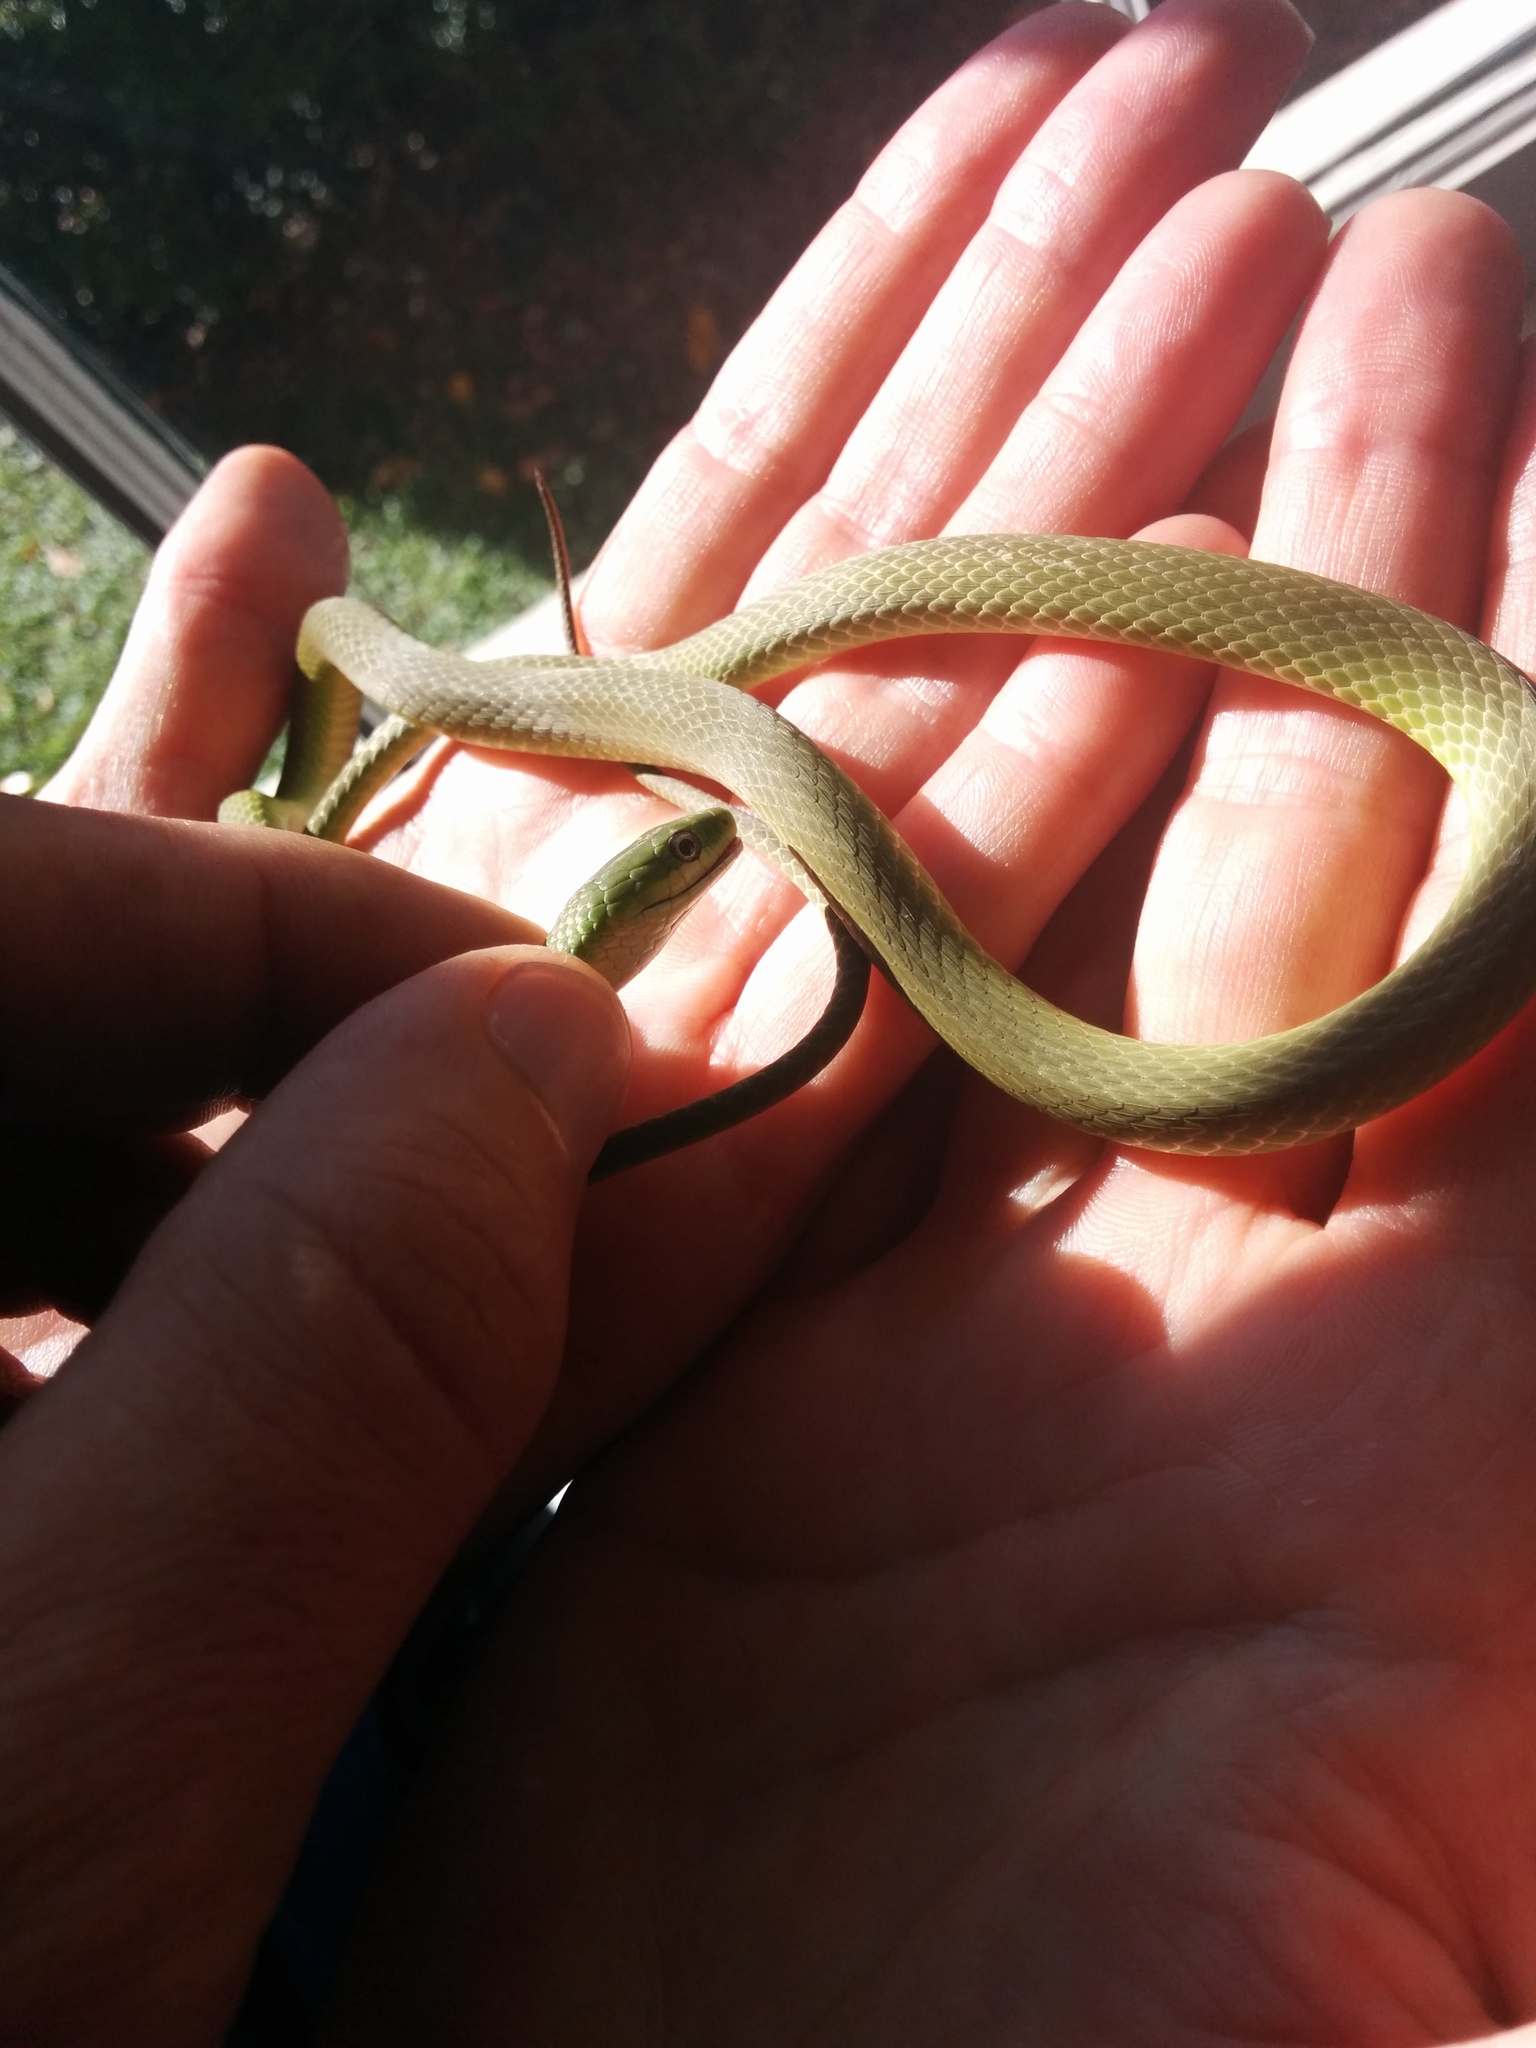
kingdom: Animalia
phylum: Chordata
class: Squamata
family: Colubridae
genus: Opheodrys
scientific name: Opheodrys aestivus
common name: Rough greensnake
